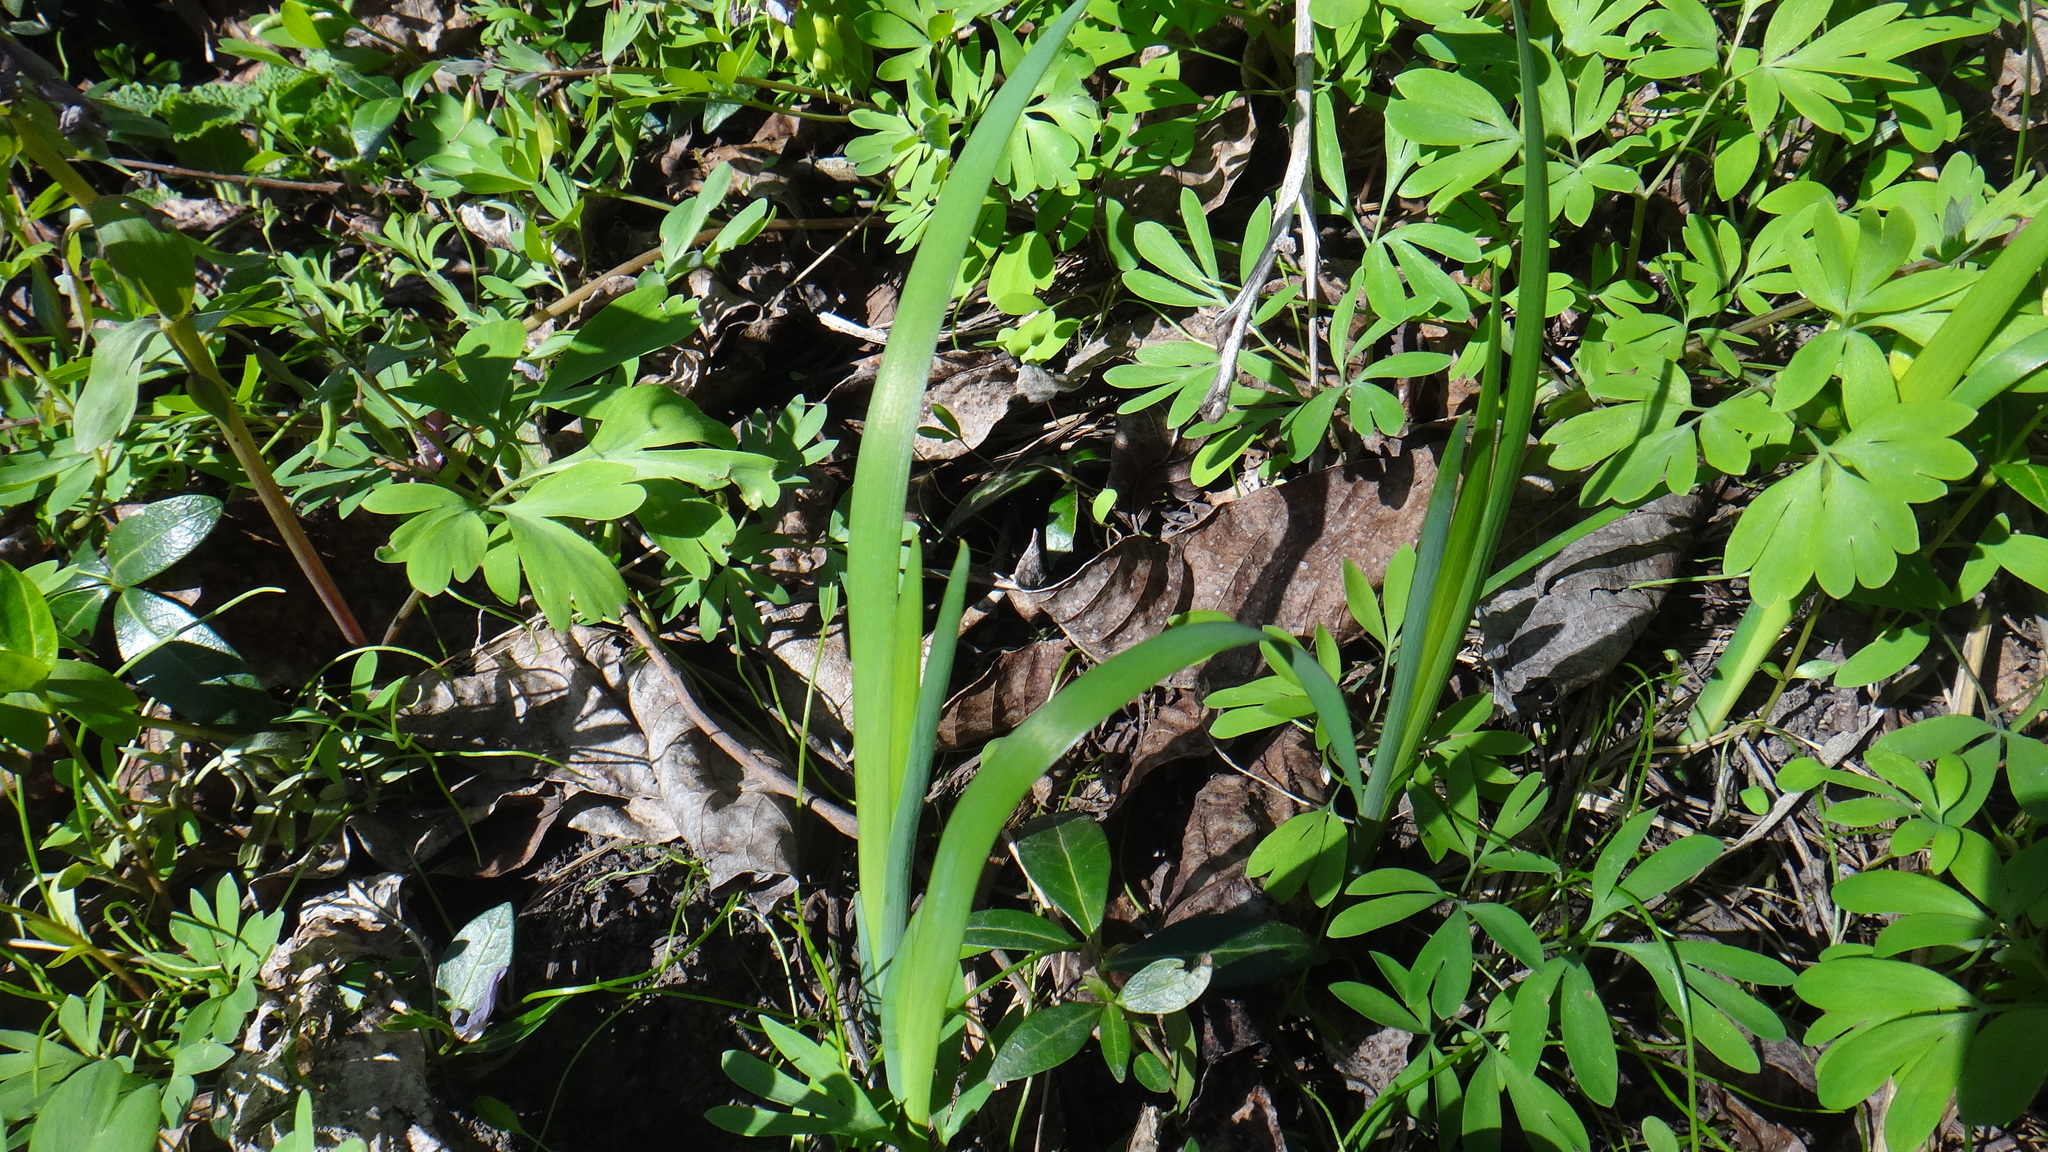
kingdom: Plantae
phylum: Tracheophyta
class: Liliopsida
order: Asparagales
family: Iridaceae
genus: Iris
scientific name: Iris graminea
